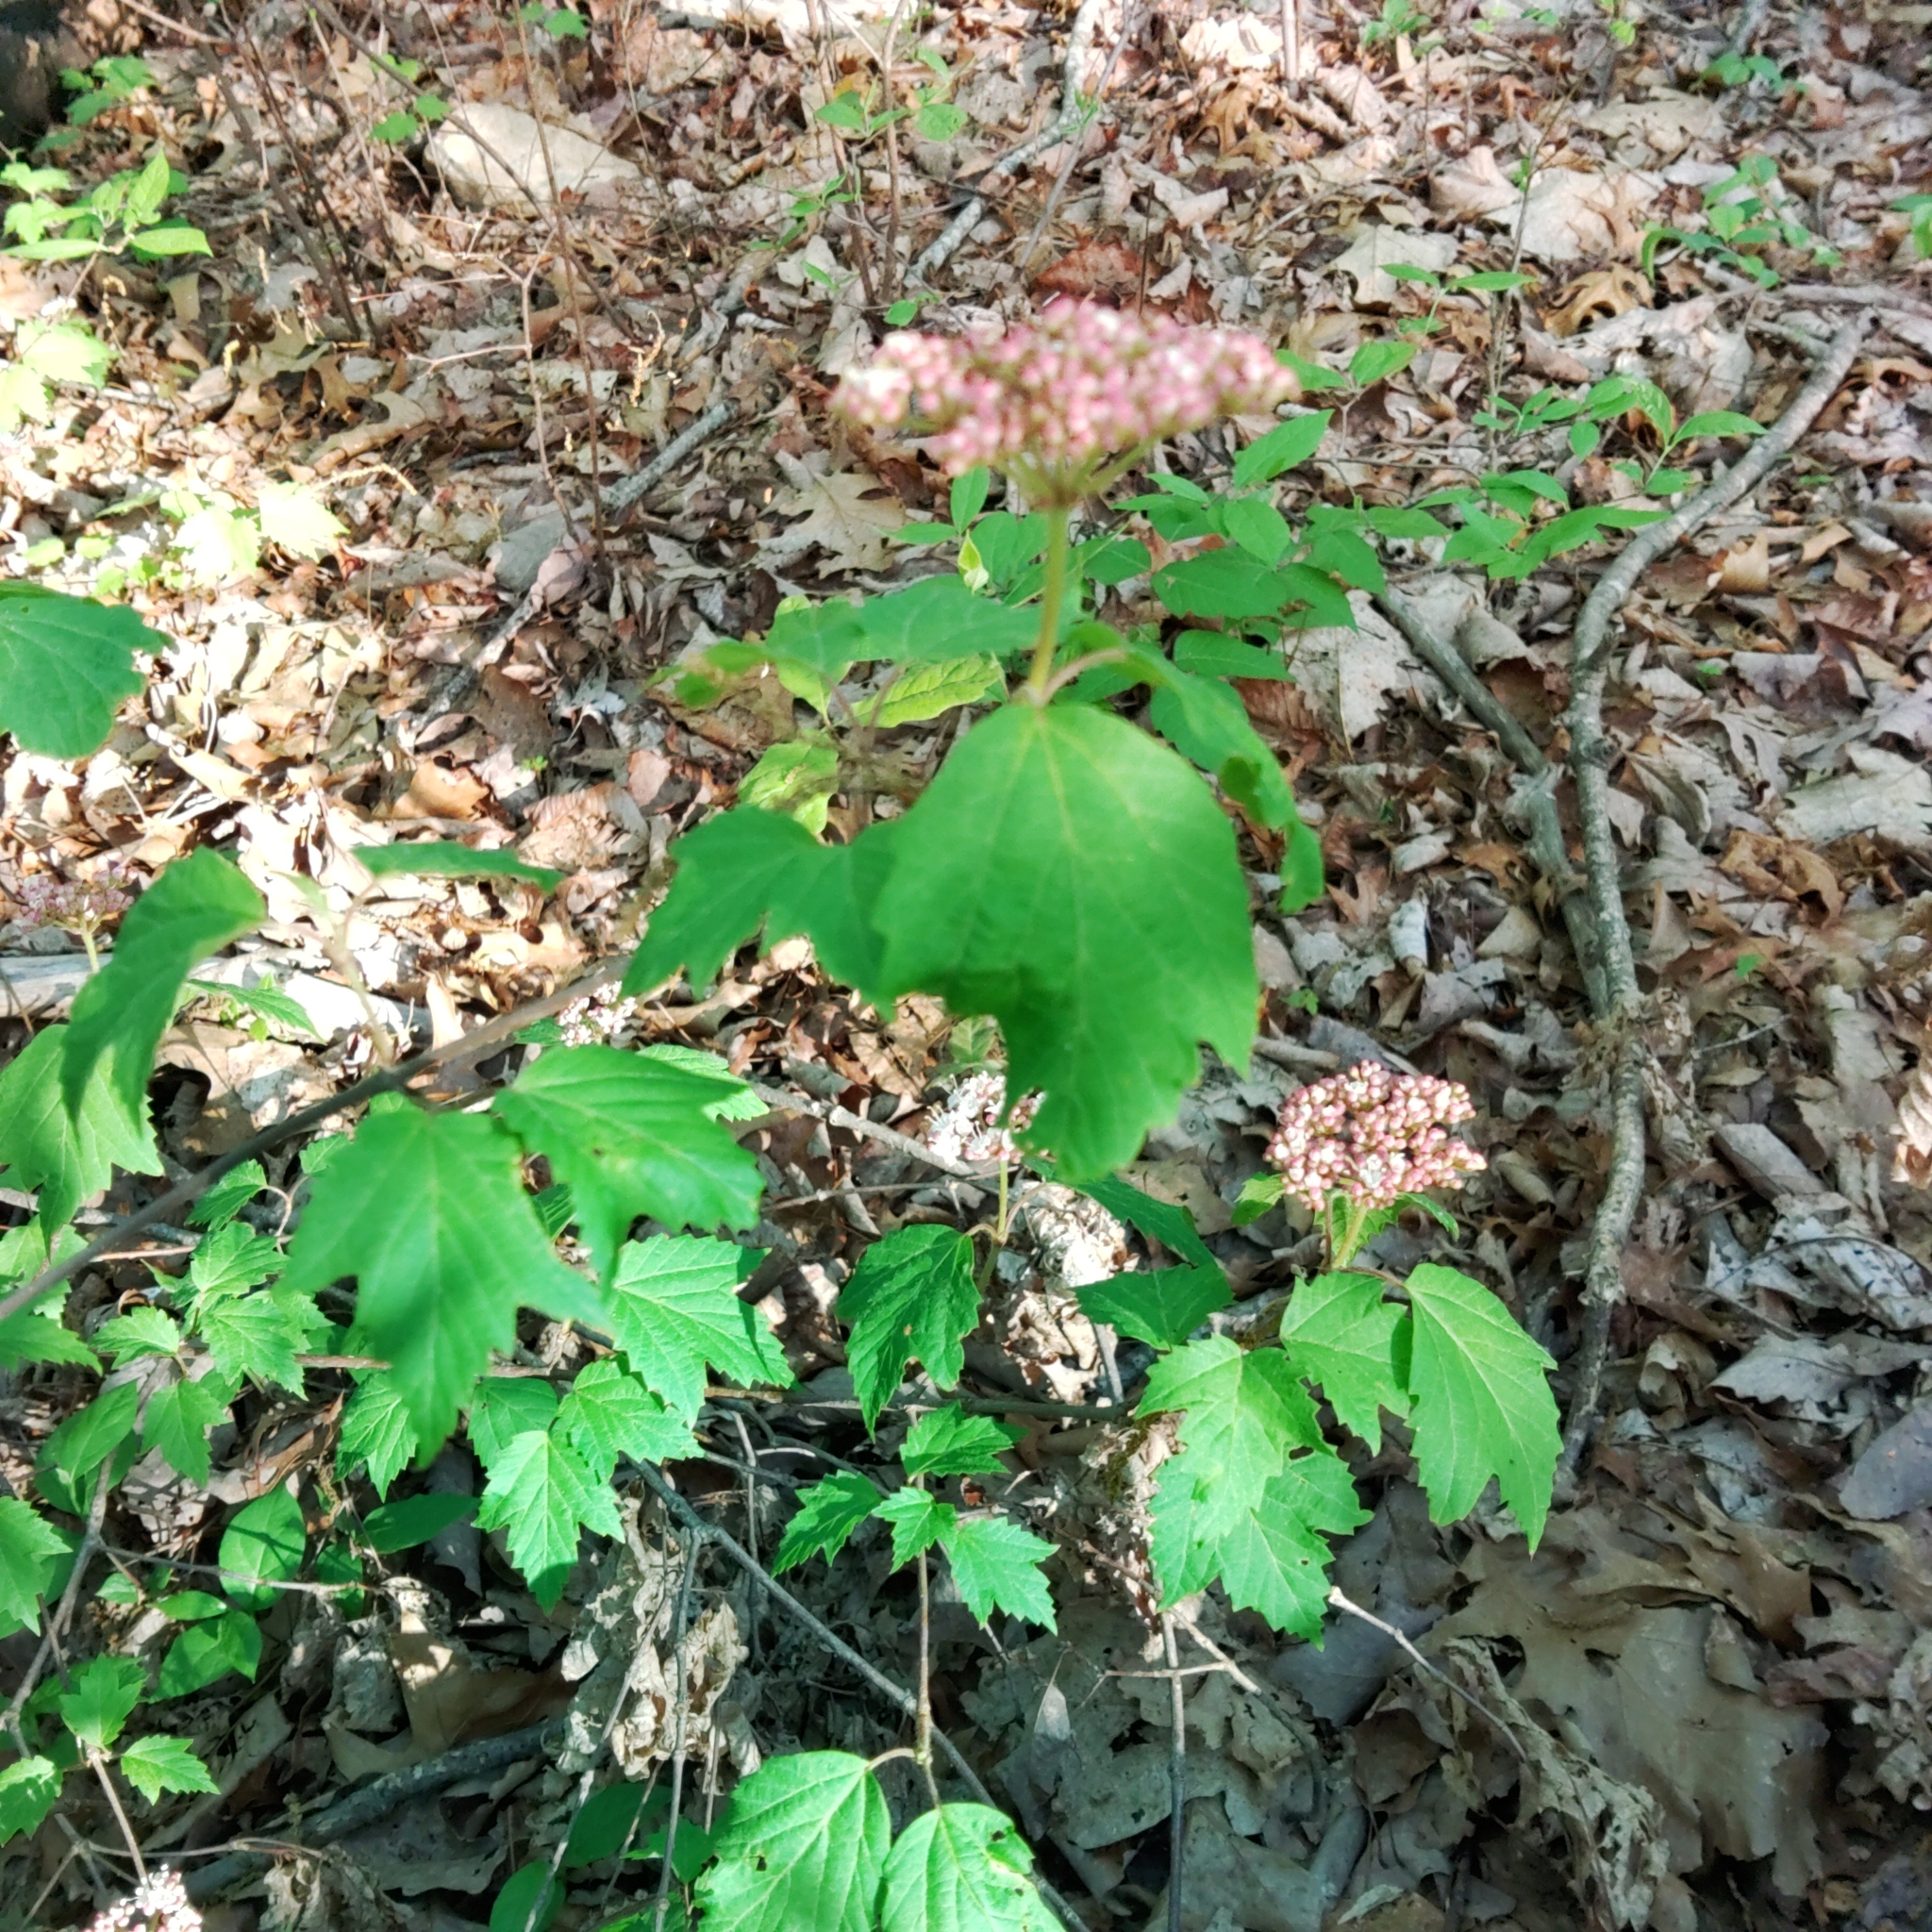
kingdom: Plantae
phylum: Tracheophyta
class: Magnoliopsida
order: Dipsacales
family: Viburnaceae
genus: Viburnum
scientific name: Viburnum acerifolium
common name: Dockmackie
